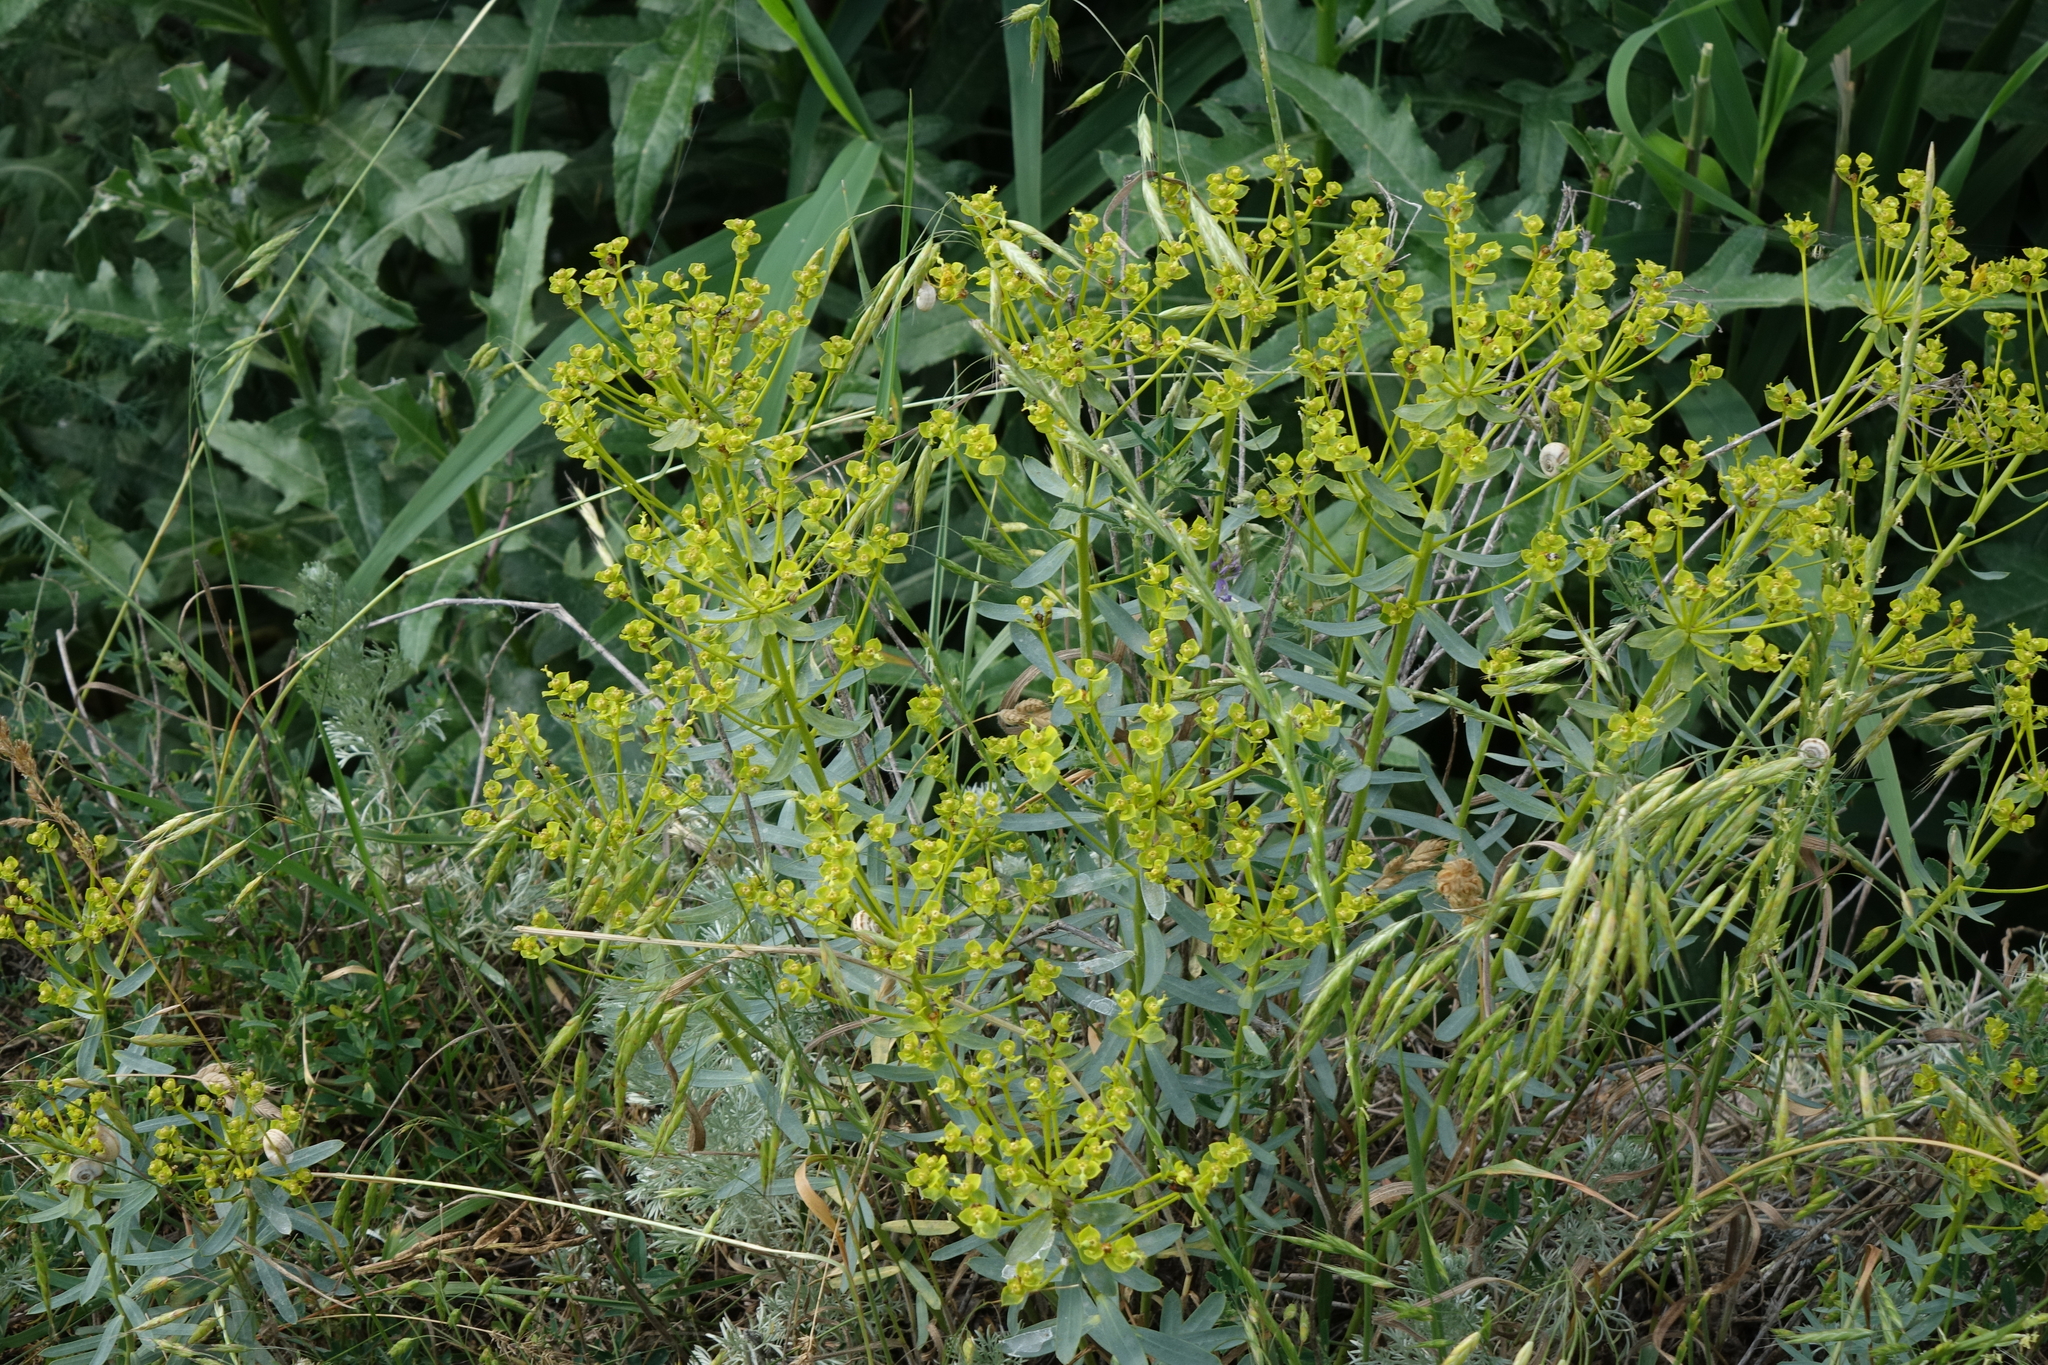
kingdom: Plantae
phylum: Tracheophyta
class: Magnoliopsida
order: Malpighiales
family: Euphorbiaceae
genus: Euphorbia
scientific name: Euphorbia seguieriana
